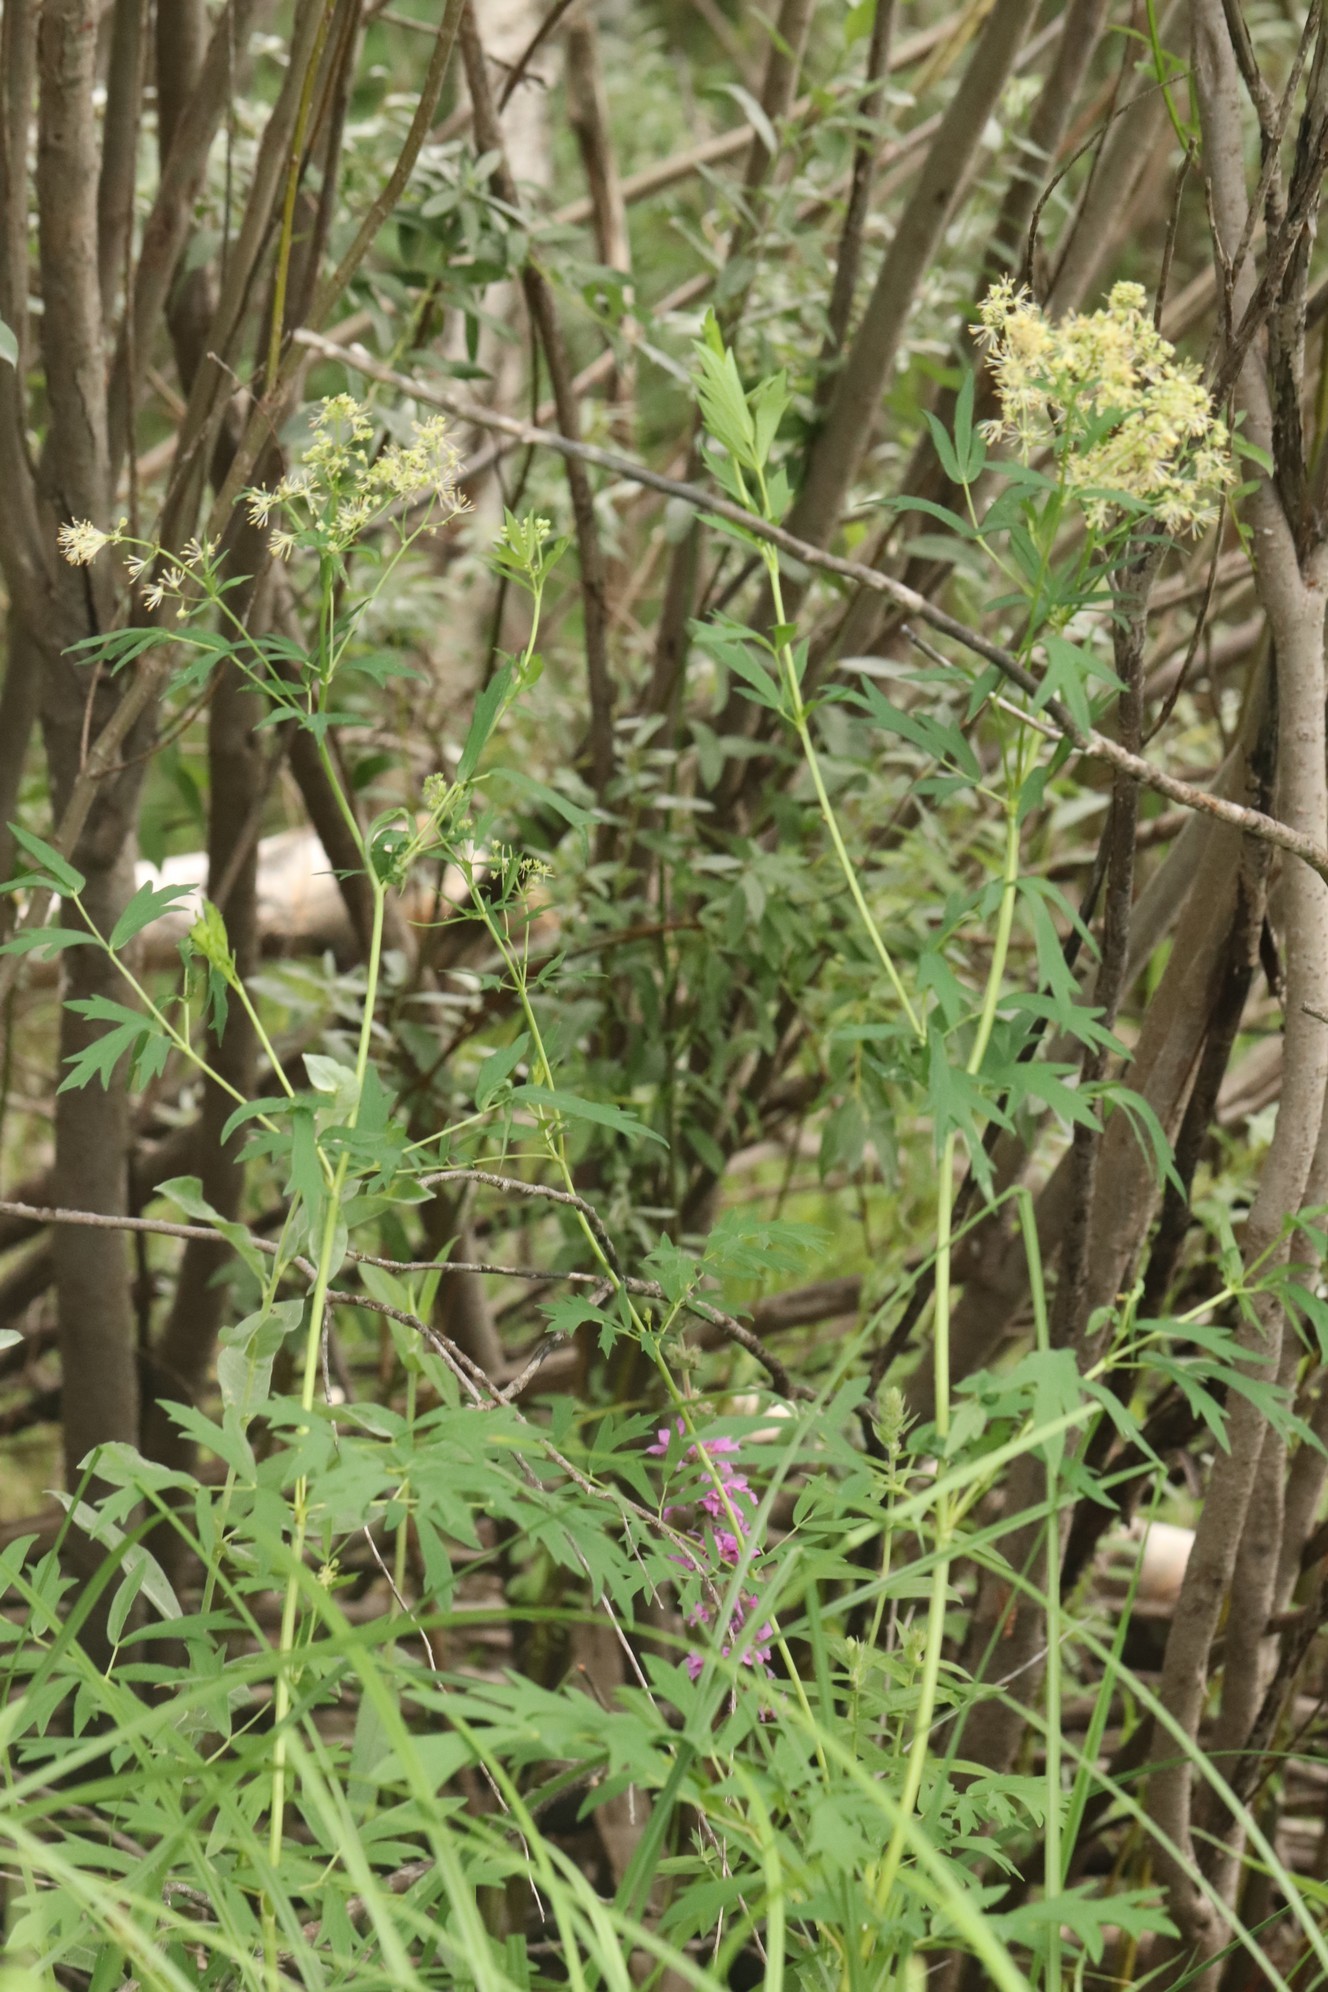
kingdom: Plantae
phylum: Tracheophyta
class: Magnoliopsida
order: Ranunculales
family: Ranunculaceae
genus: Thalictrum
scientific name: Thalictrum flavum
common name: Common meadow-rue
